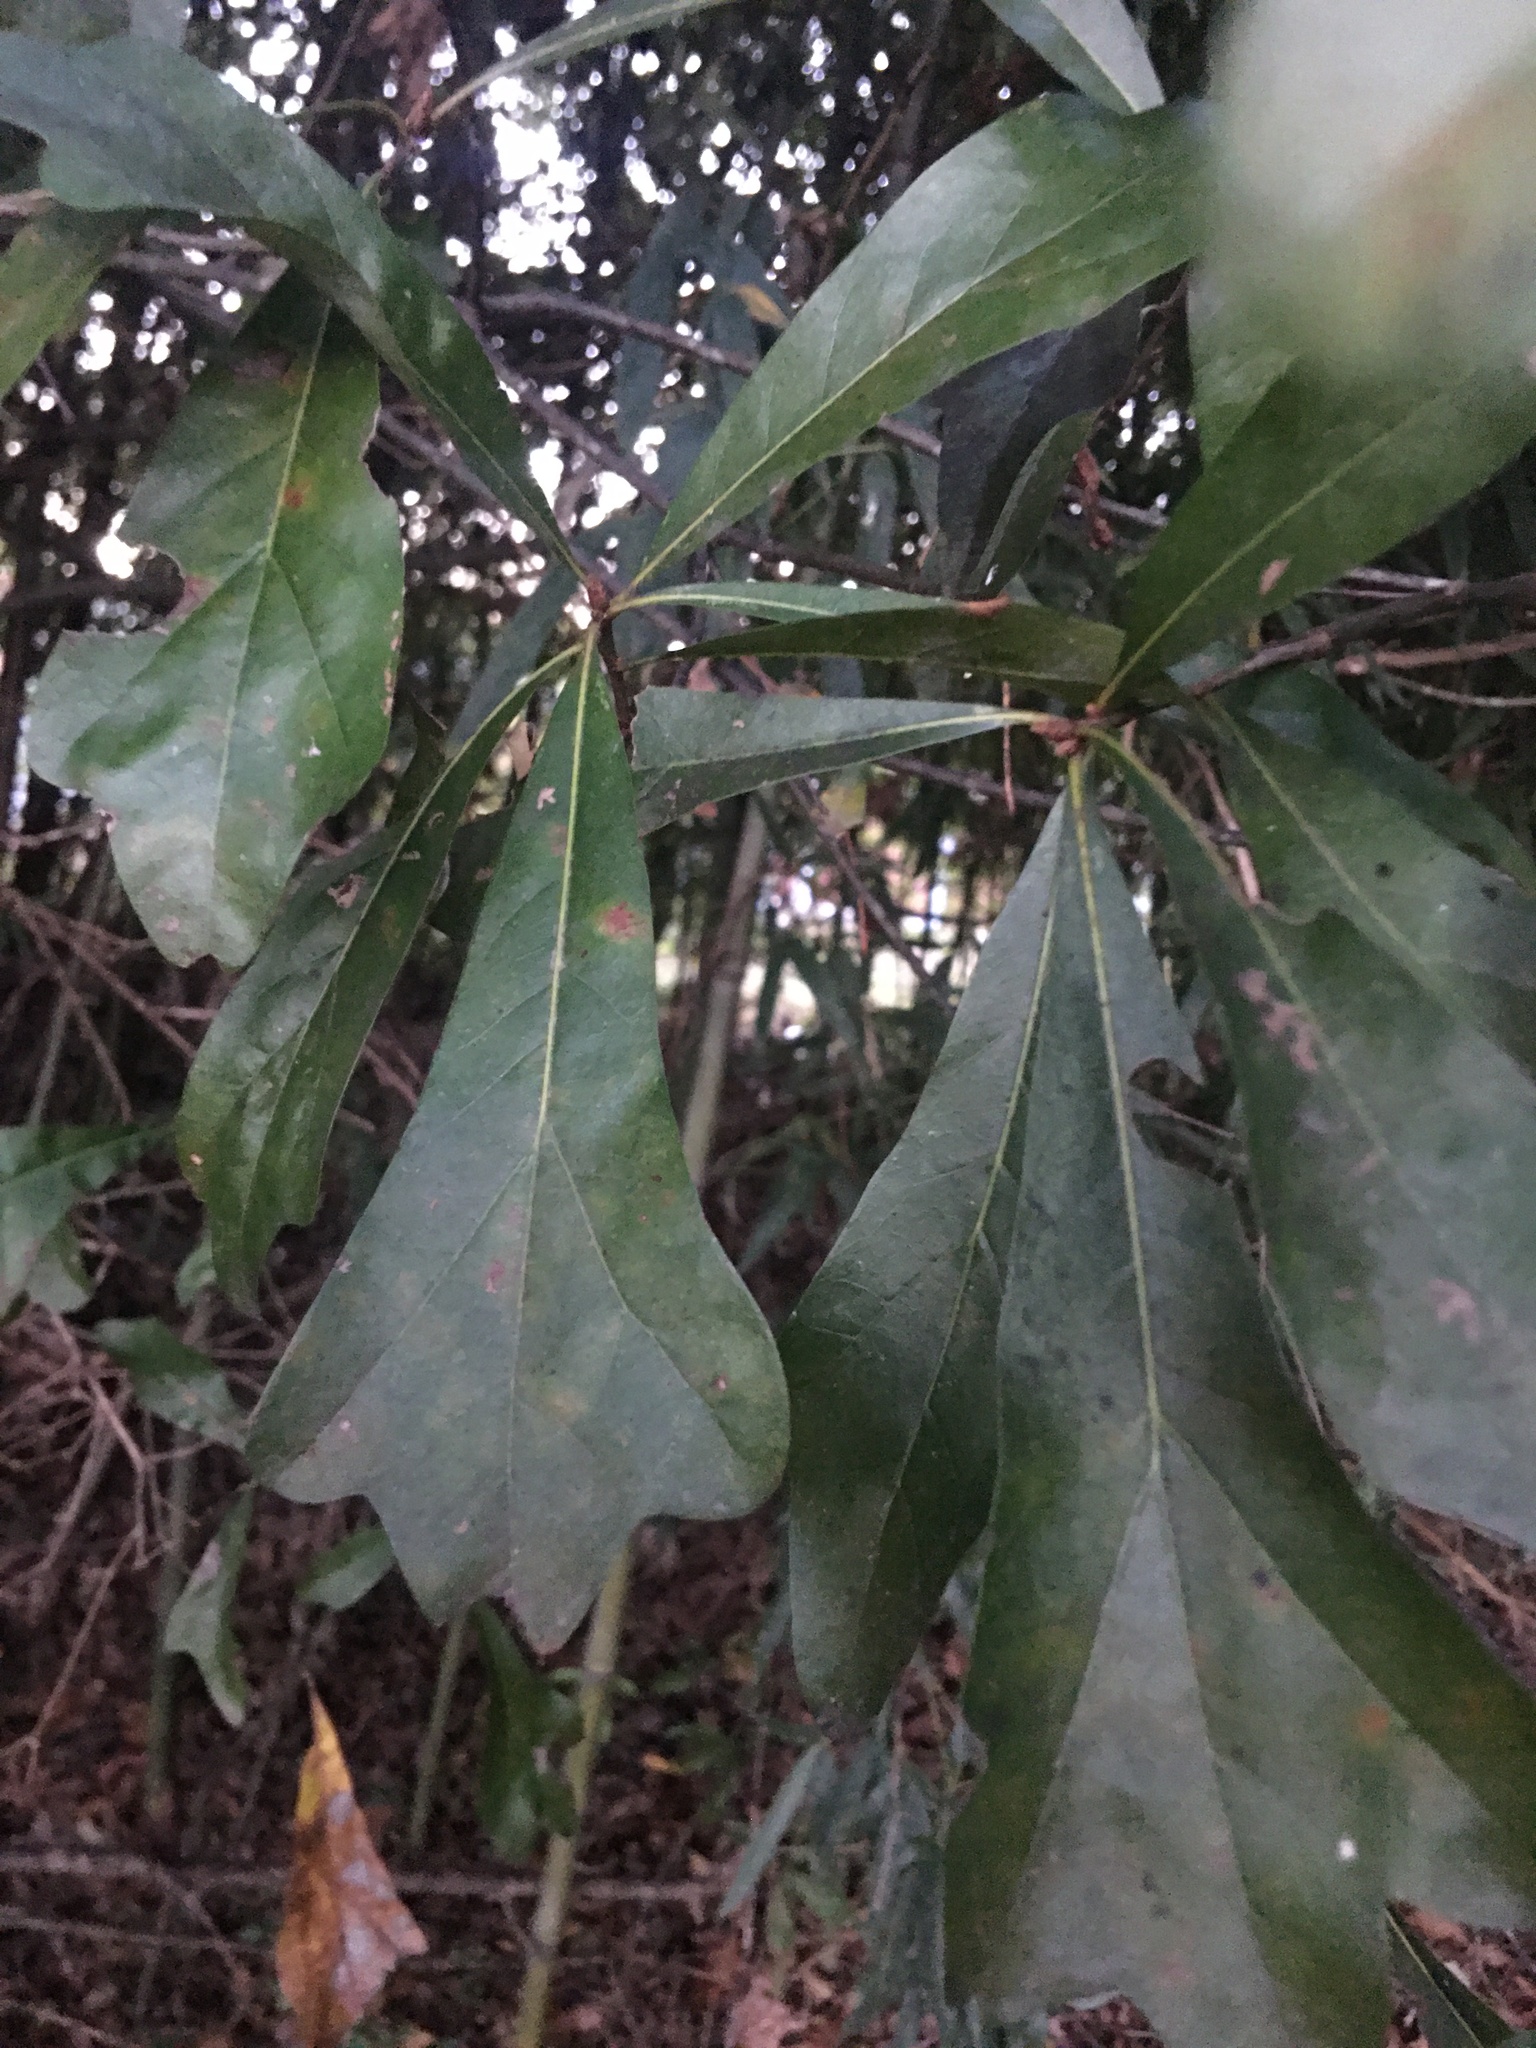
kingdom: Plantae
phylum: Tracheophyta
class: Magnoliopsida
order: Fagales
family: Fagaceae
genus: Quercus
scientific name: Quercus nigra
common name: Water oak
